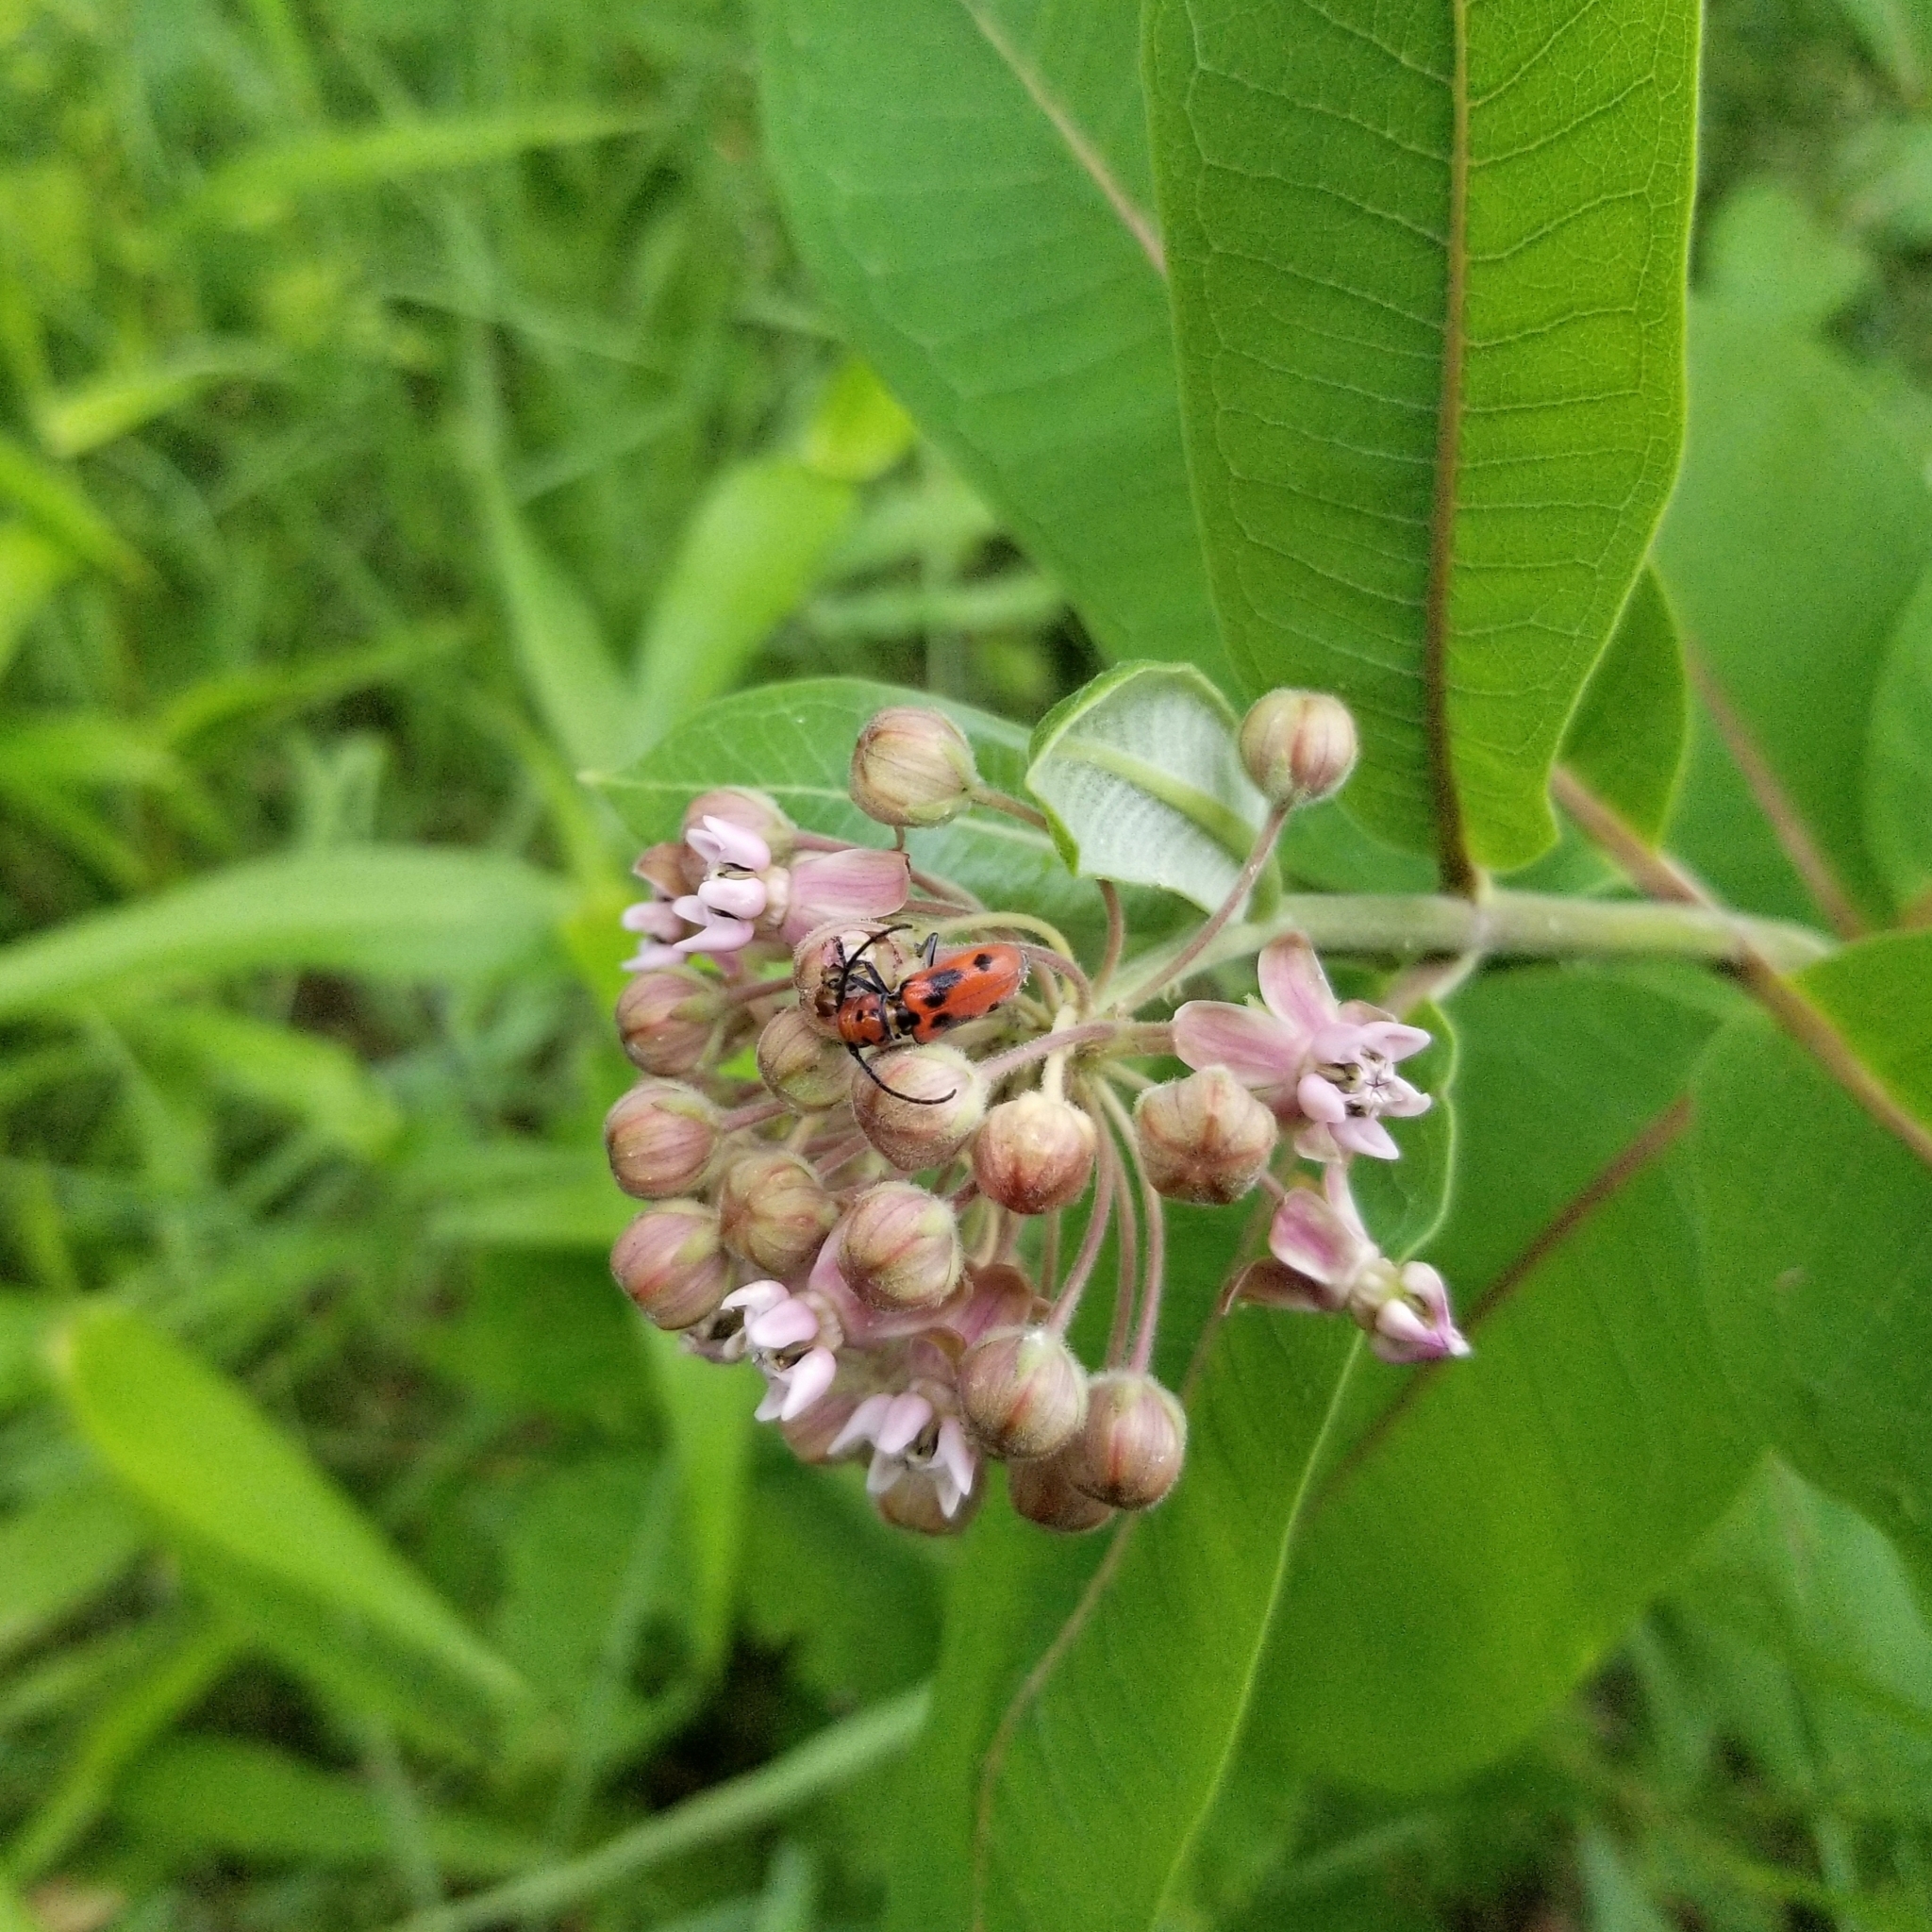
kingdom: Animalia
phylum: Arthropoda
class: Insecta
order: Coleoptera
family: Cerambycidae
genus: Tetraopes
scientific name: Tetraopes tetrophthalmus
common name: Red milkweed beetle
